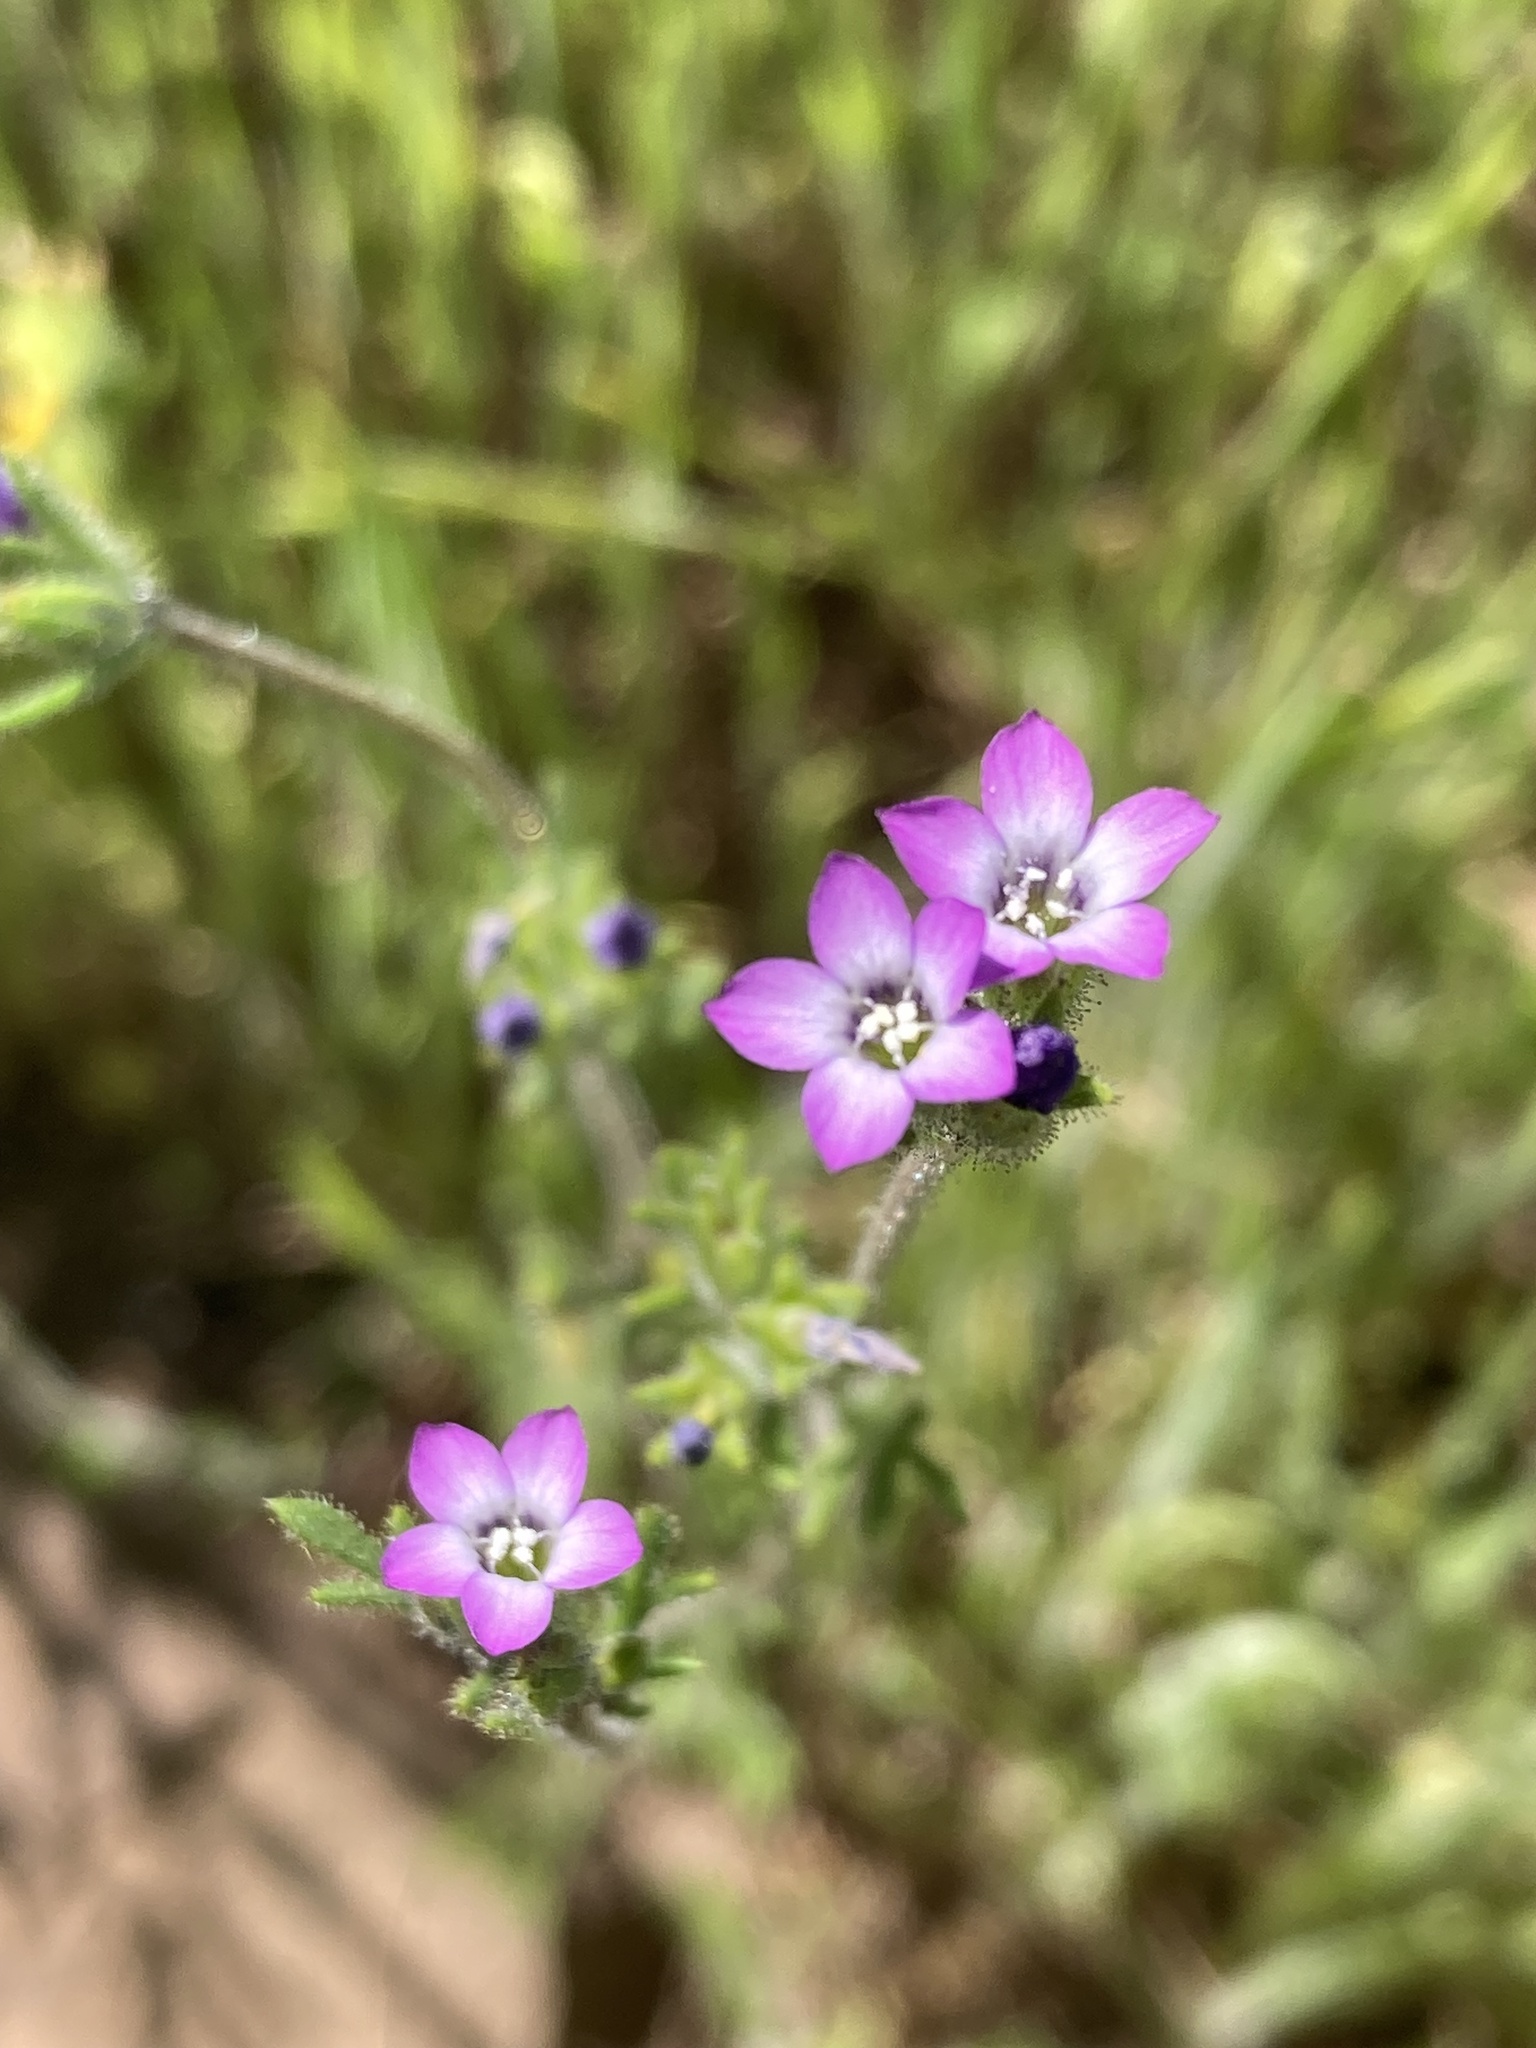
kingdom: Plantae
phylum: Tracheophyta
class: Magnoliopsida
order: Ericales
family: Polemoniaceae
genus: Gilia
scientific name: Gilia laciniata
